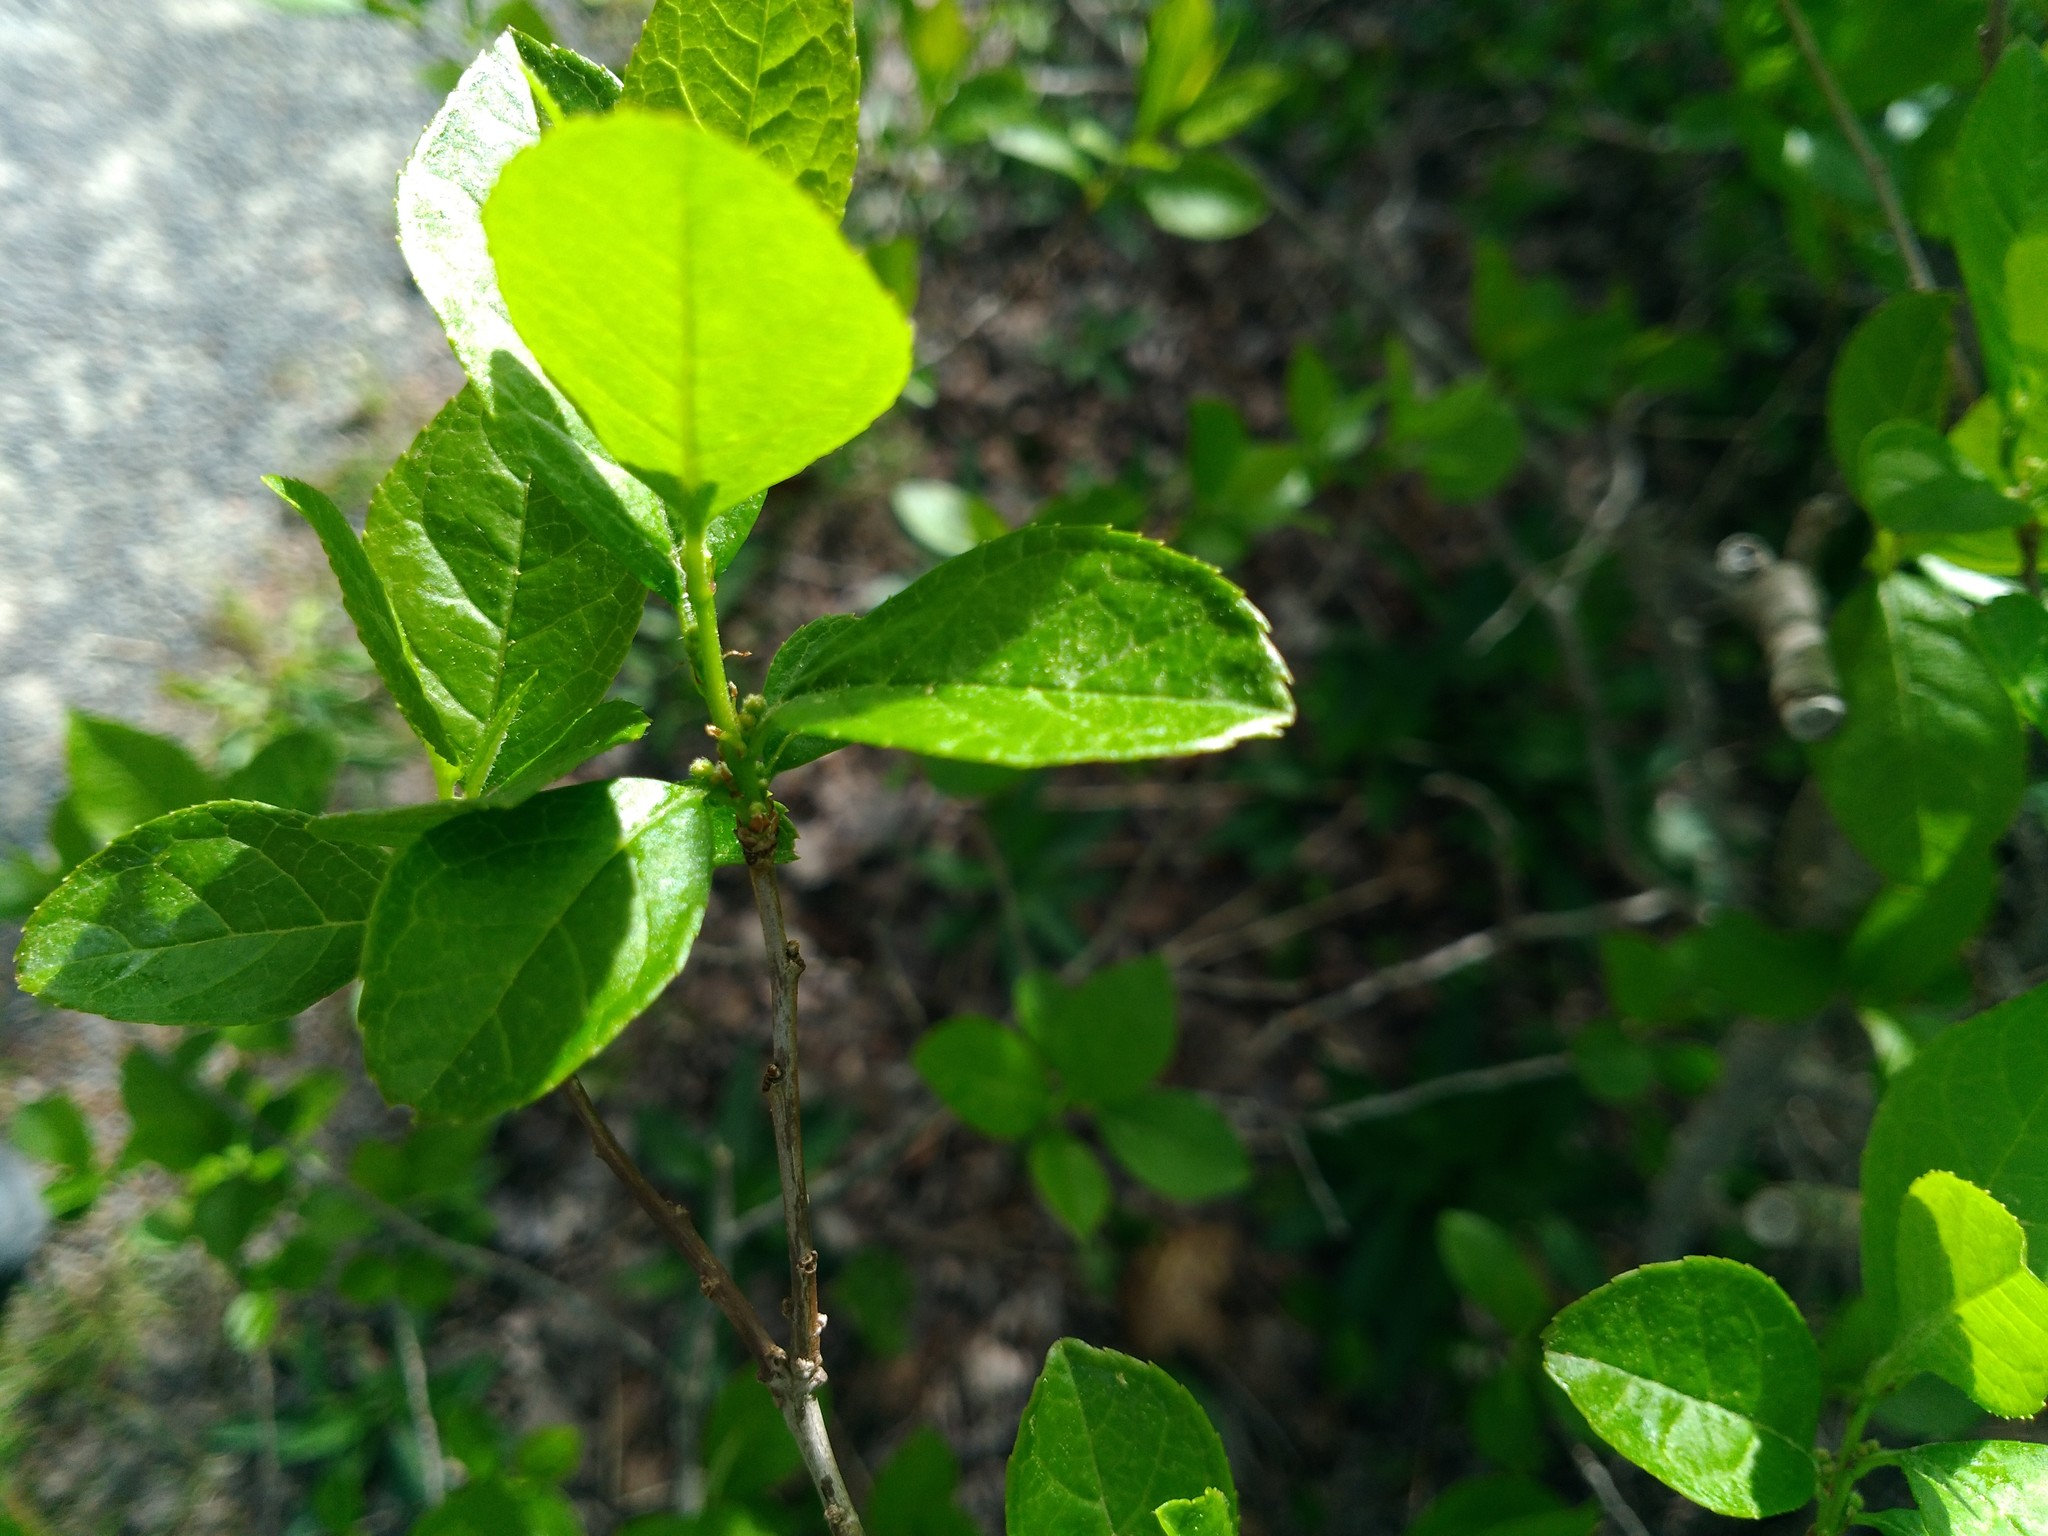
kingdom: Plantae
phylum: Tracheophyta
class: Magnoliopsida
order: Aquifoliales
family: Aquifoliaceae
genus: Ilex
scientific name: Ilex verticillata
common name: Virginia winterberry
